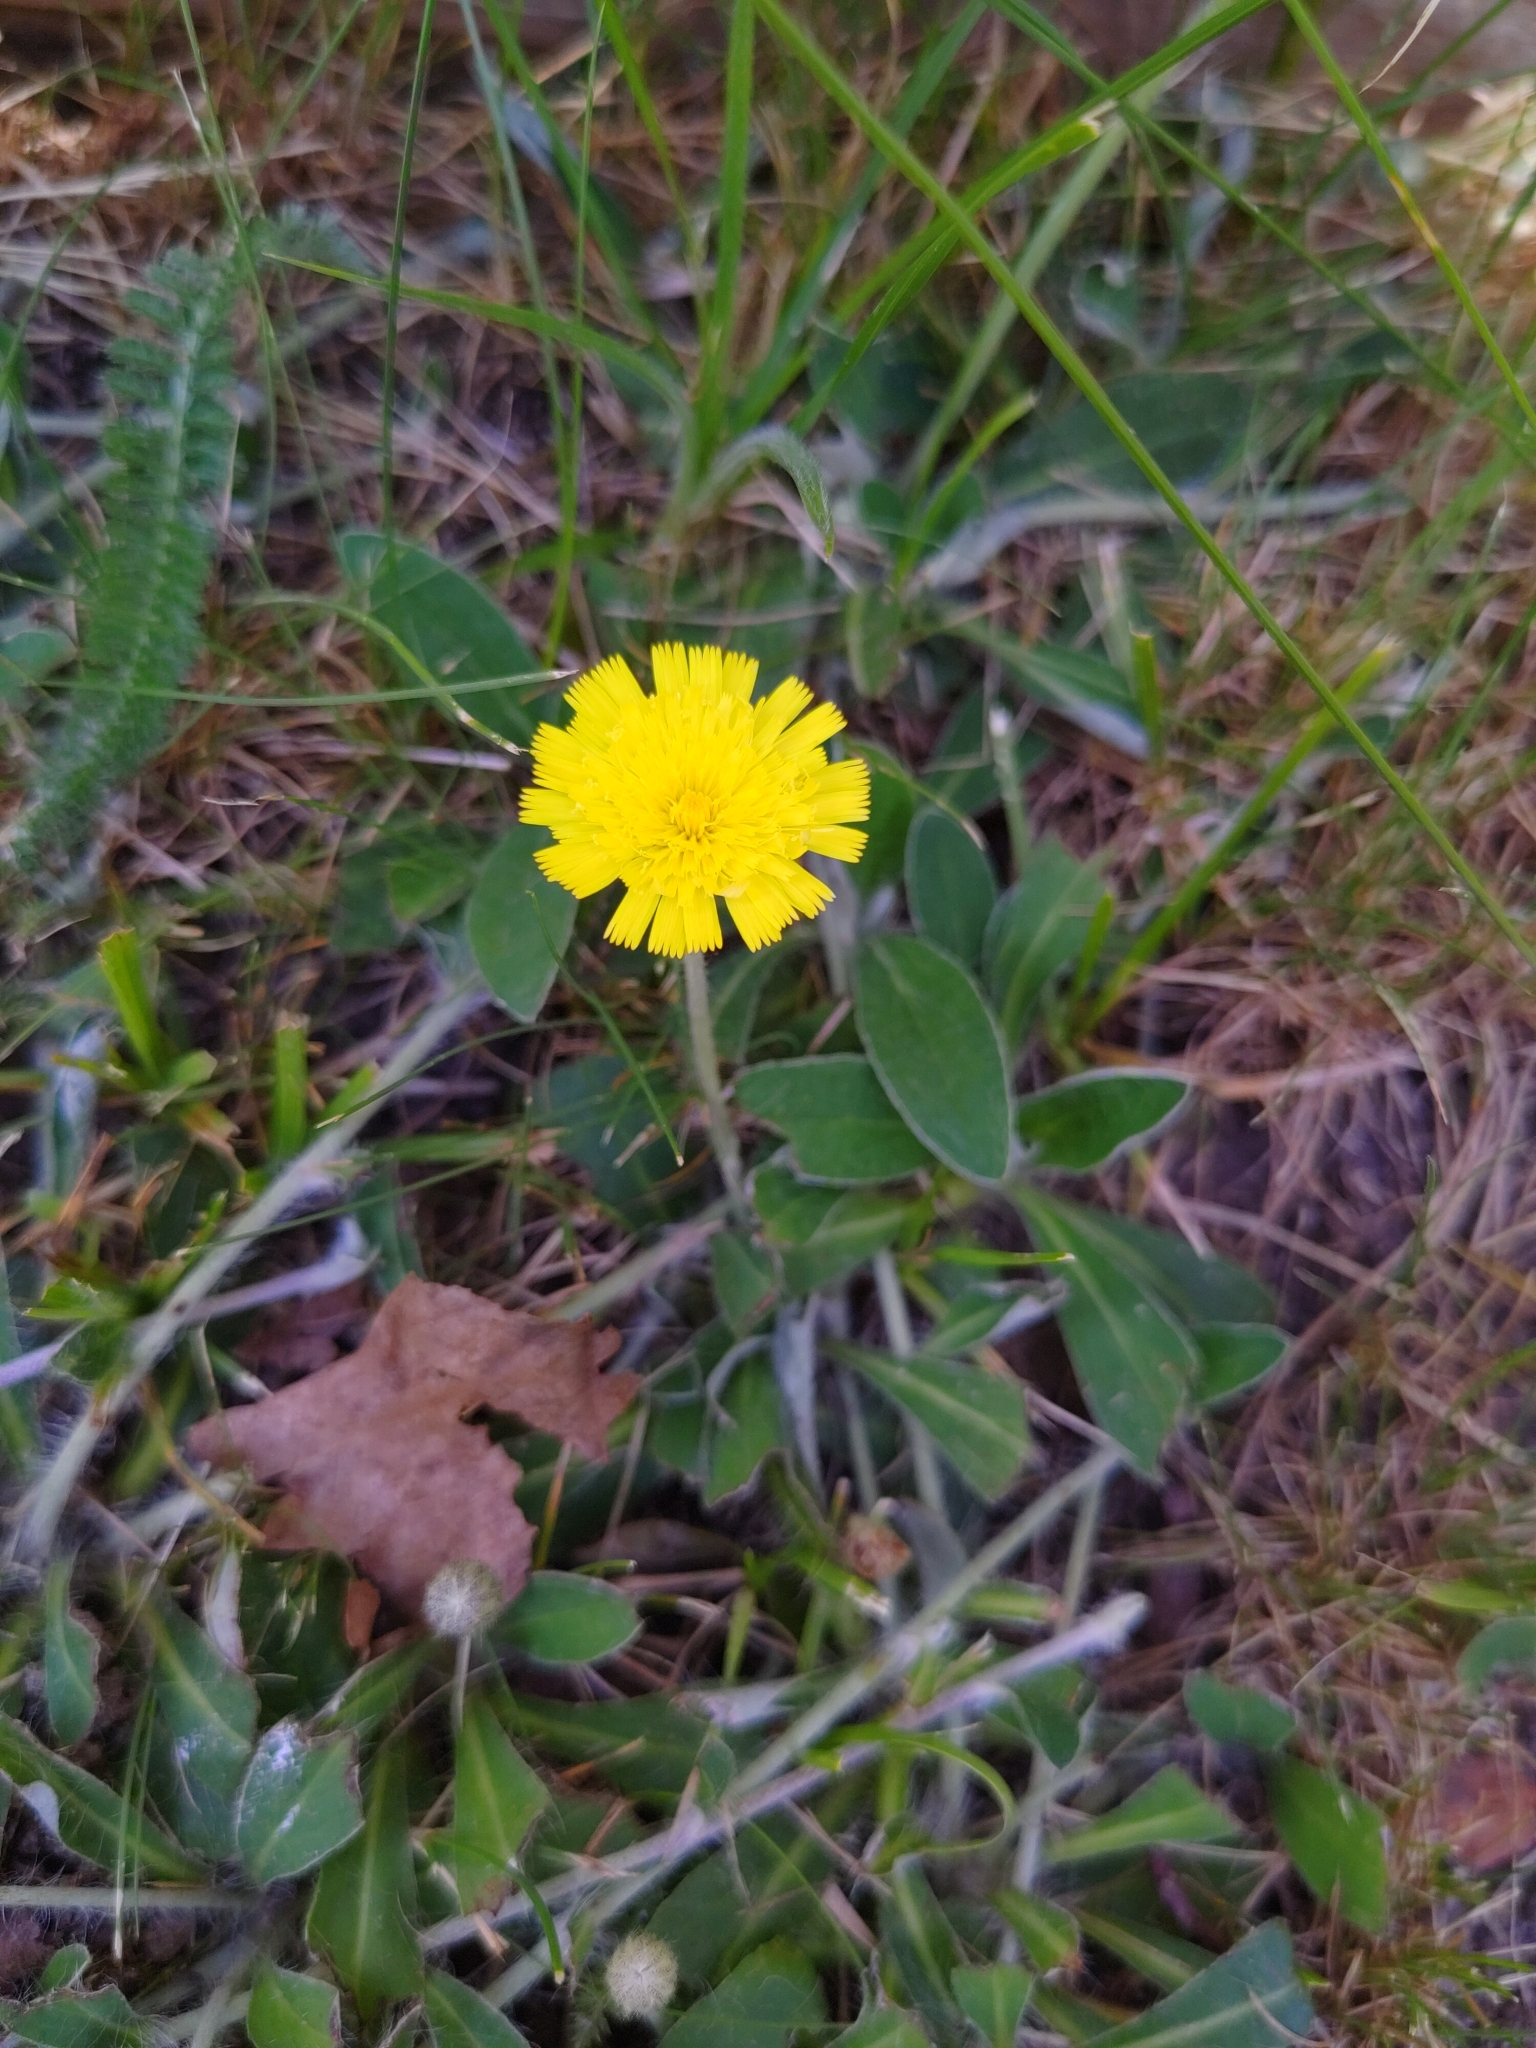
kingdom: Plantae
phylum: Tracheophyta
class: Magnoliopsida
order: Asterales
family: Asteraceae
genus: Pilosella
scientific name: Pilosella officinarum
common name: Mouse-ear hawkweed
